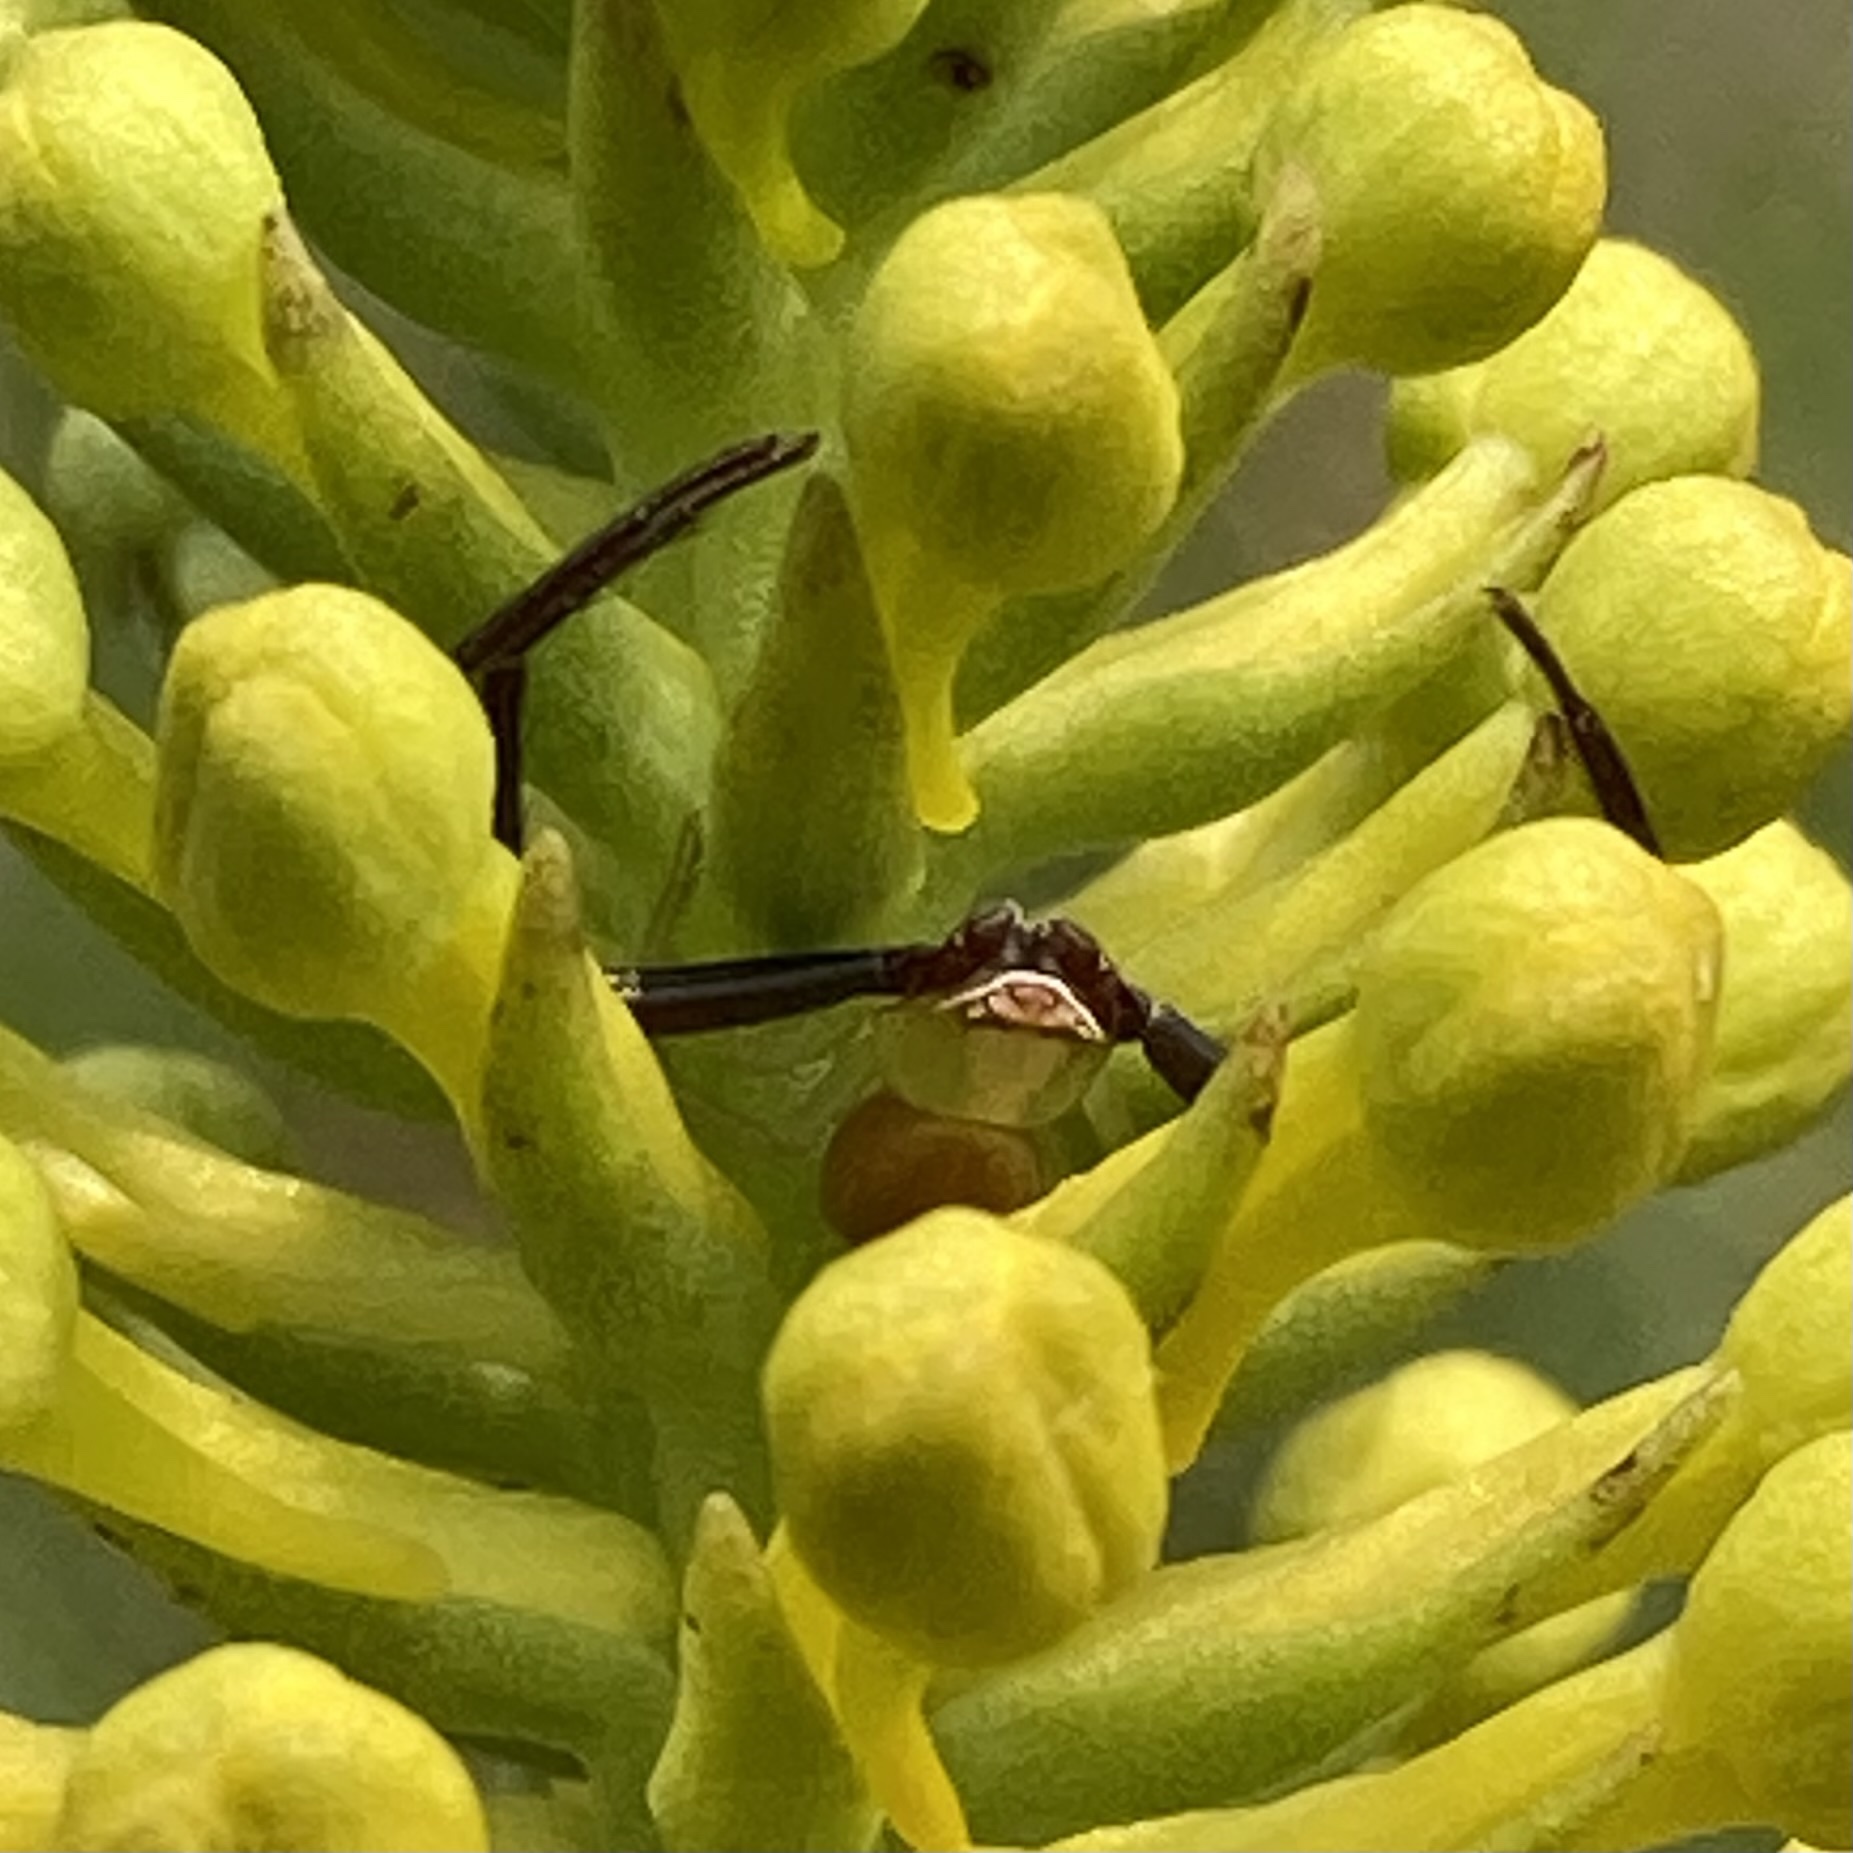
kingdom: Animalia
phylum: Arthropoda
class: Arachnida
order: Araneae
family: Thomisidae
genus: Misumenoides
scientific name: Misumenoides formosipes
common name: White-banded crab spider
